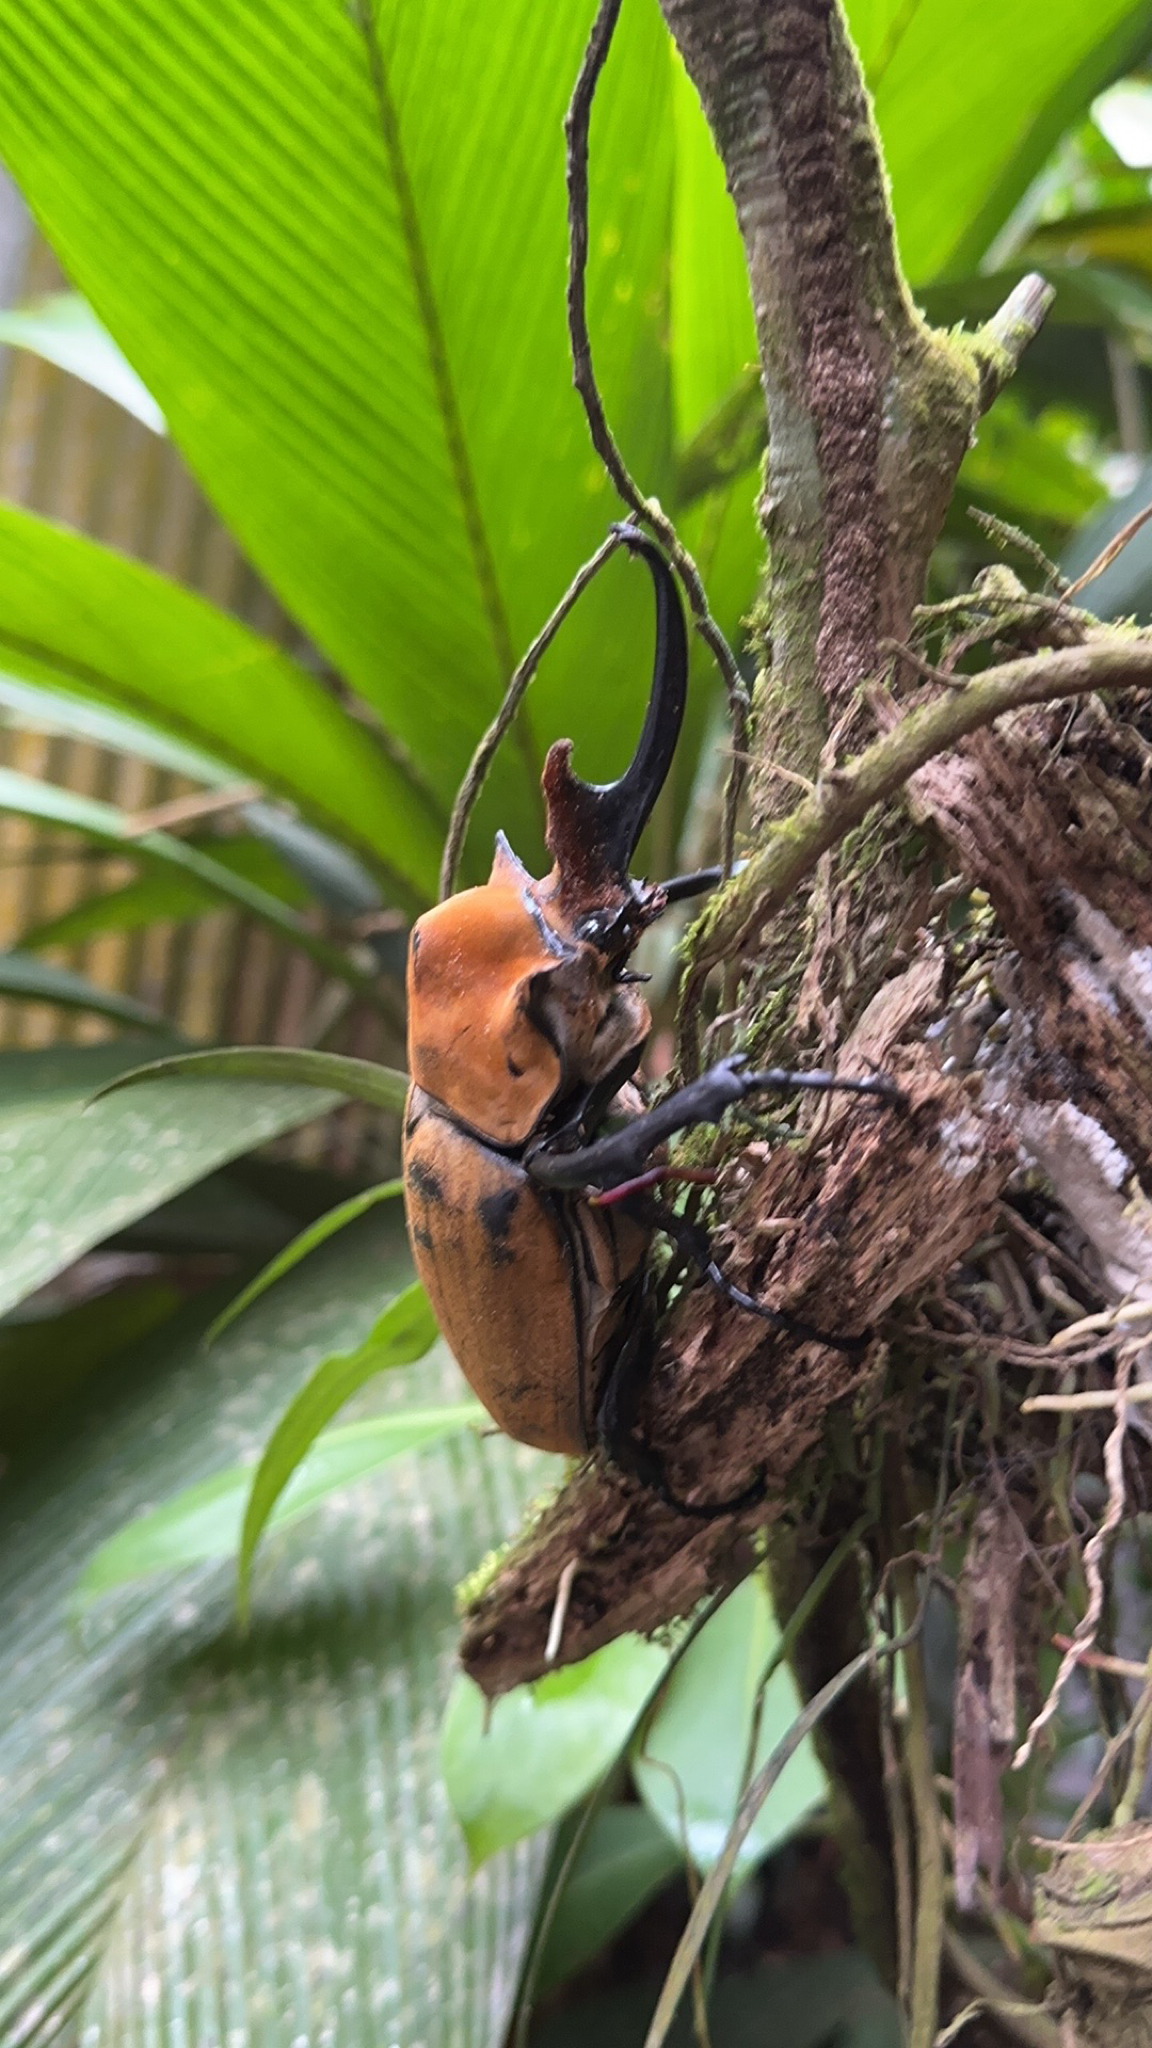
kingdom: Animalia
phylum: Arthropoda
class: Insecta
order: Coleoptera
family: Scarabaeidae
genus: Megasoma
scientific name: Megasoma elephas
